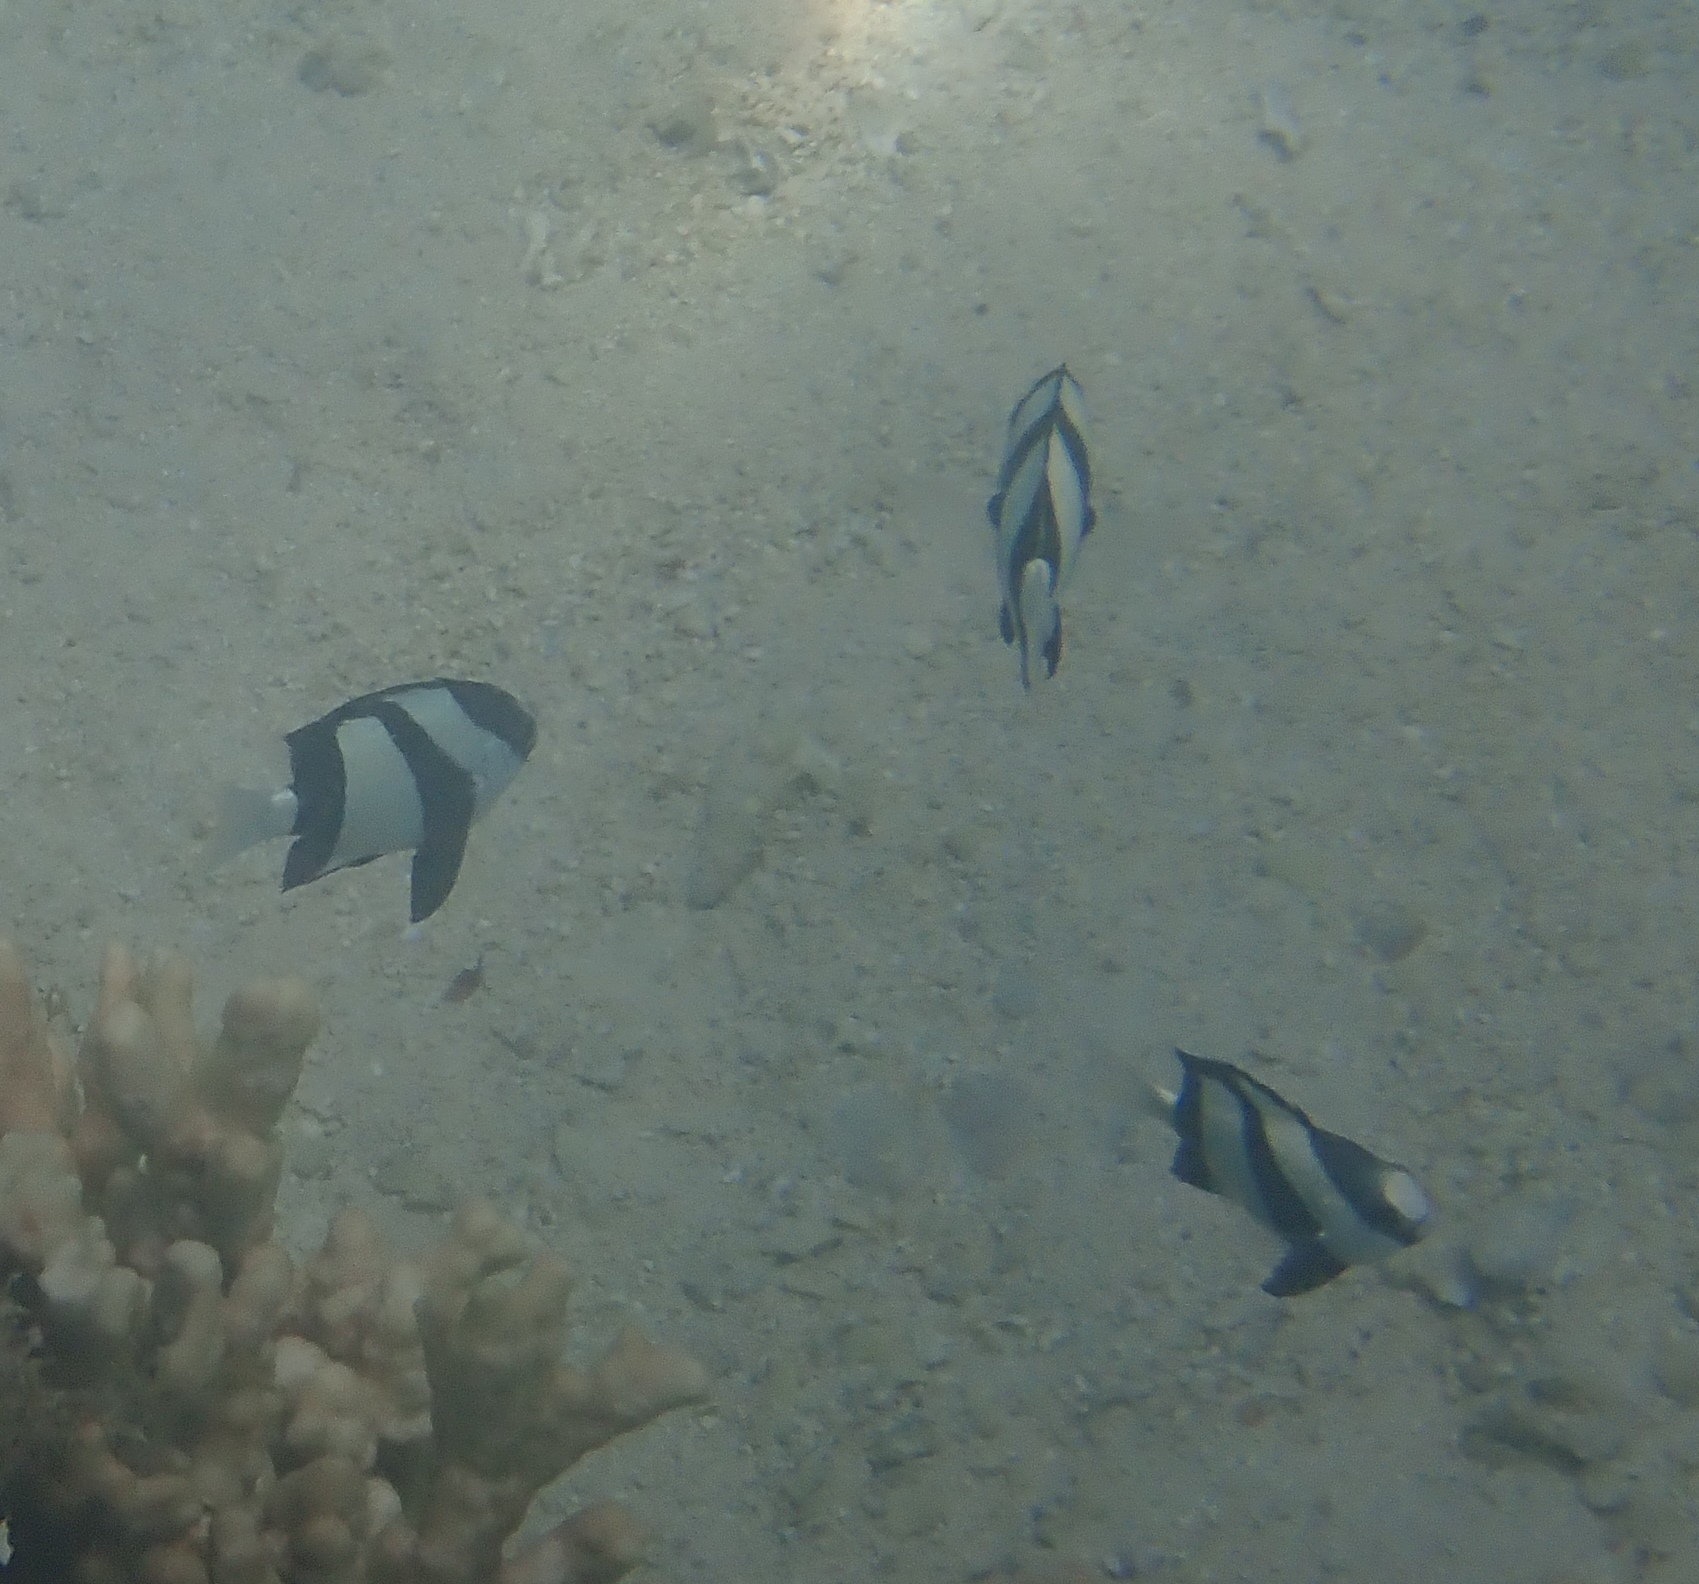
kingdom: Animalia
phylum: Chordata
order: Perciformes
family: Pomacentridae
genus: Dascyllus
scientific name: Dascyllus aruanus
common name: Humbug dascyllus
